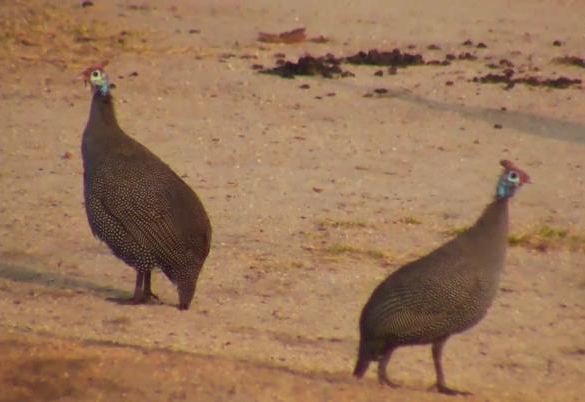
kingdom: Animalia
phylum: Chordata
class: Aves
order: Galliformes
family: Numididae
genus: Numida
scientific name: Numida meleagris
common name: Helmeted guineafowl
